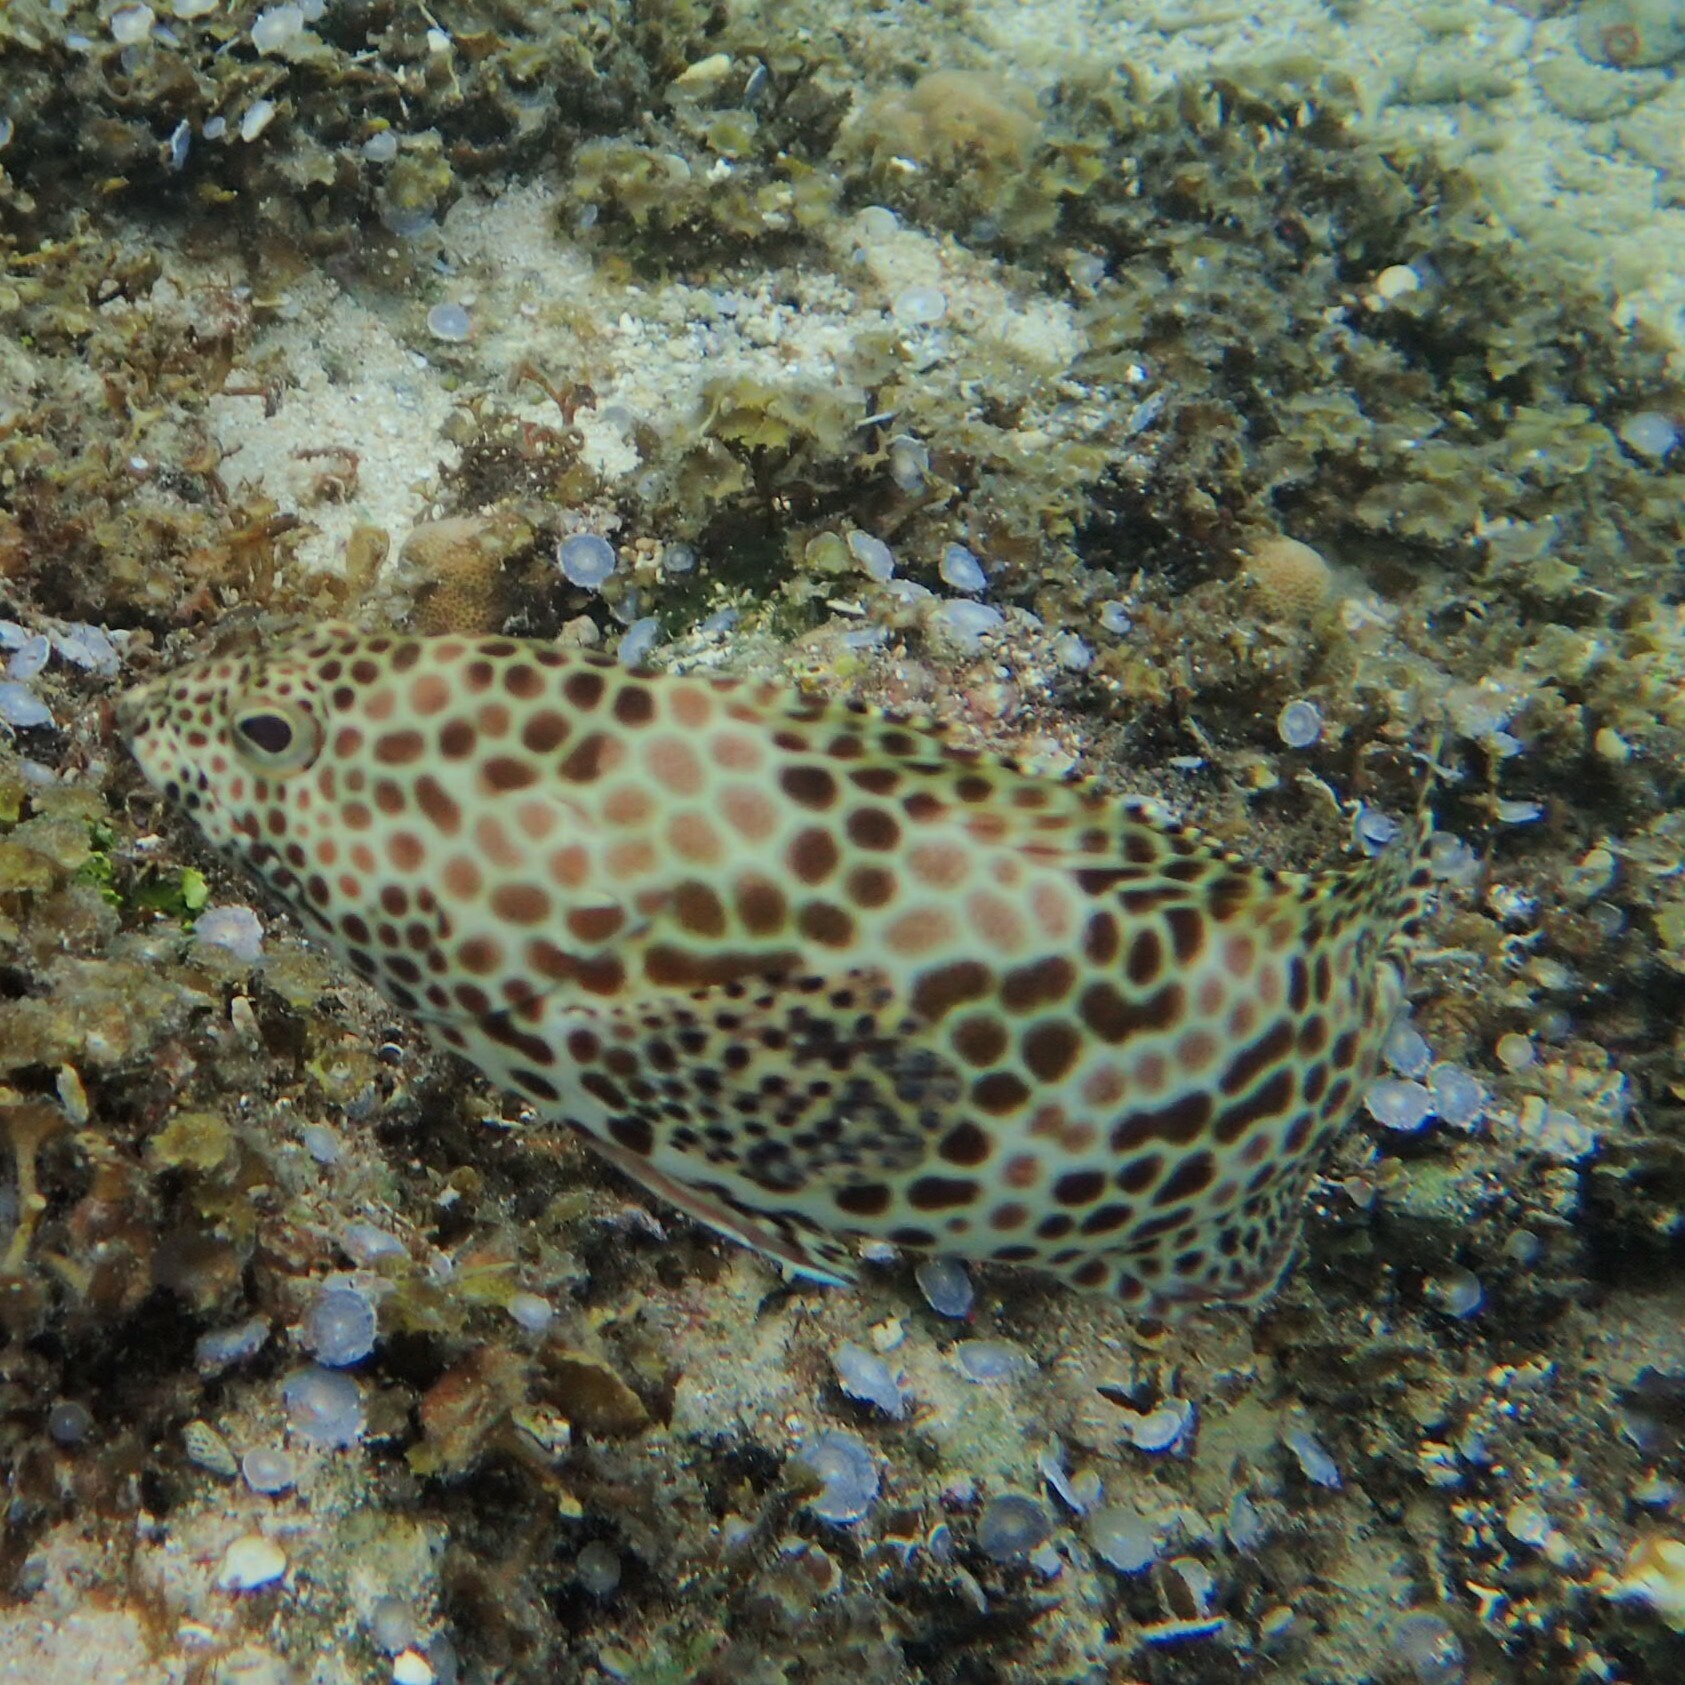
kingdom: Animalia
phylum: Chordata
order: Perciformes
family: Serranidae
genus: Epinephelus
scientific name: Epinephelus merra
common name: Honeycomb grouper
